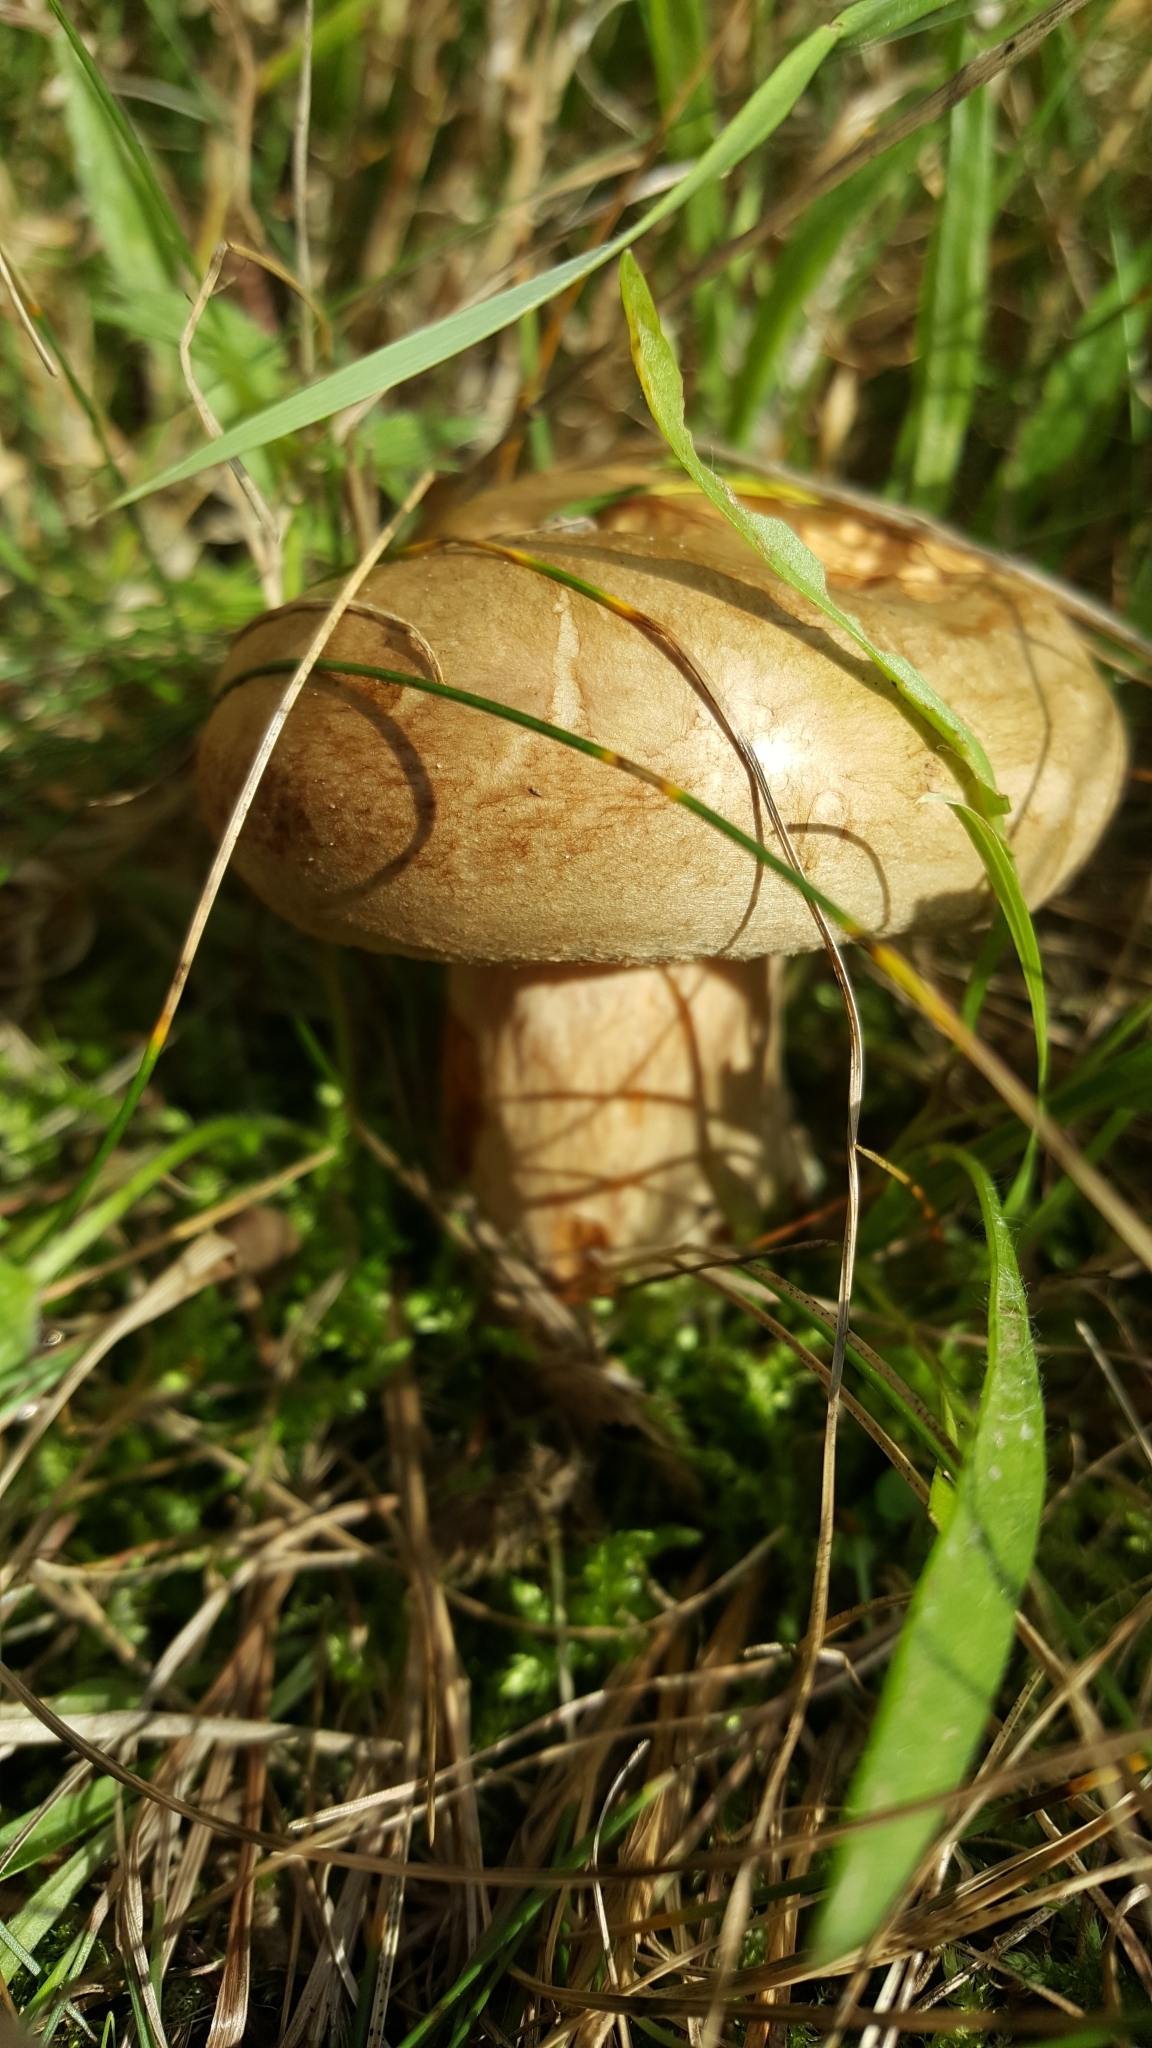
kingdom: Fungi
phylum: Basidiomycota
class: Agaricomycetes
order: Boletales
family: Paxillaceae
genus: Paxillus
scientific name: Paxillus involutus
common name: Brown roll rim
